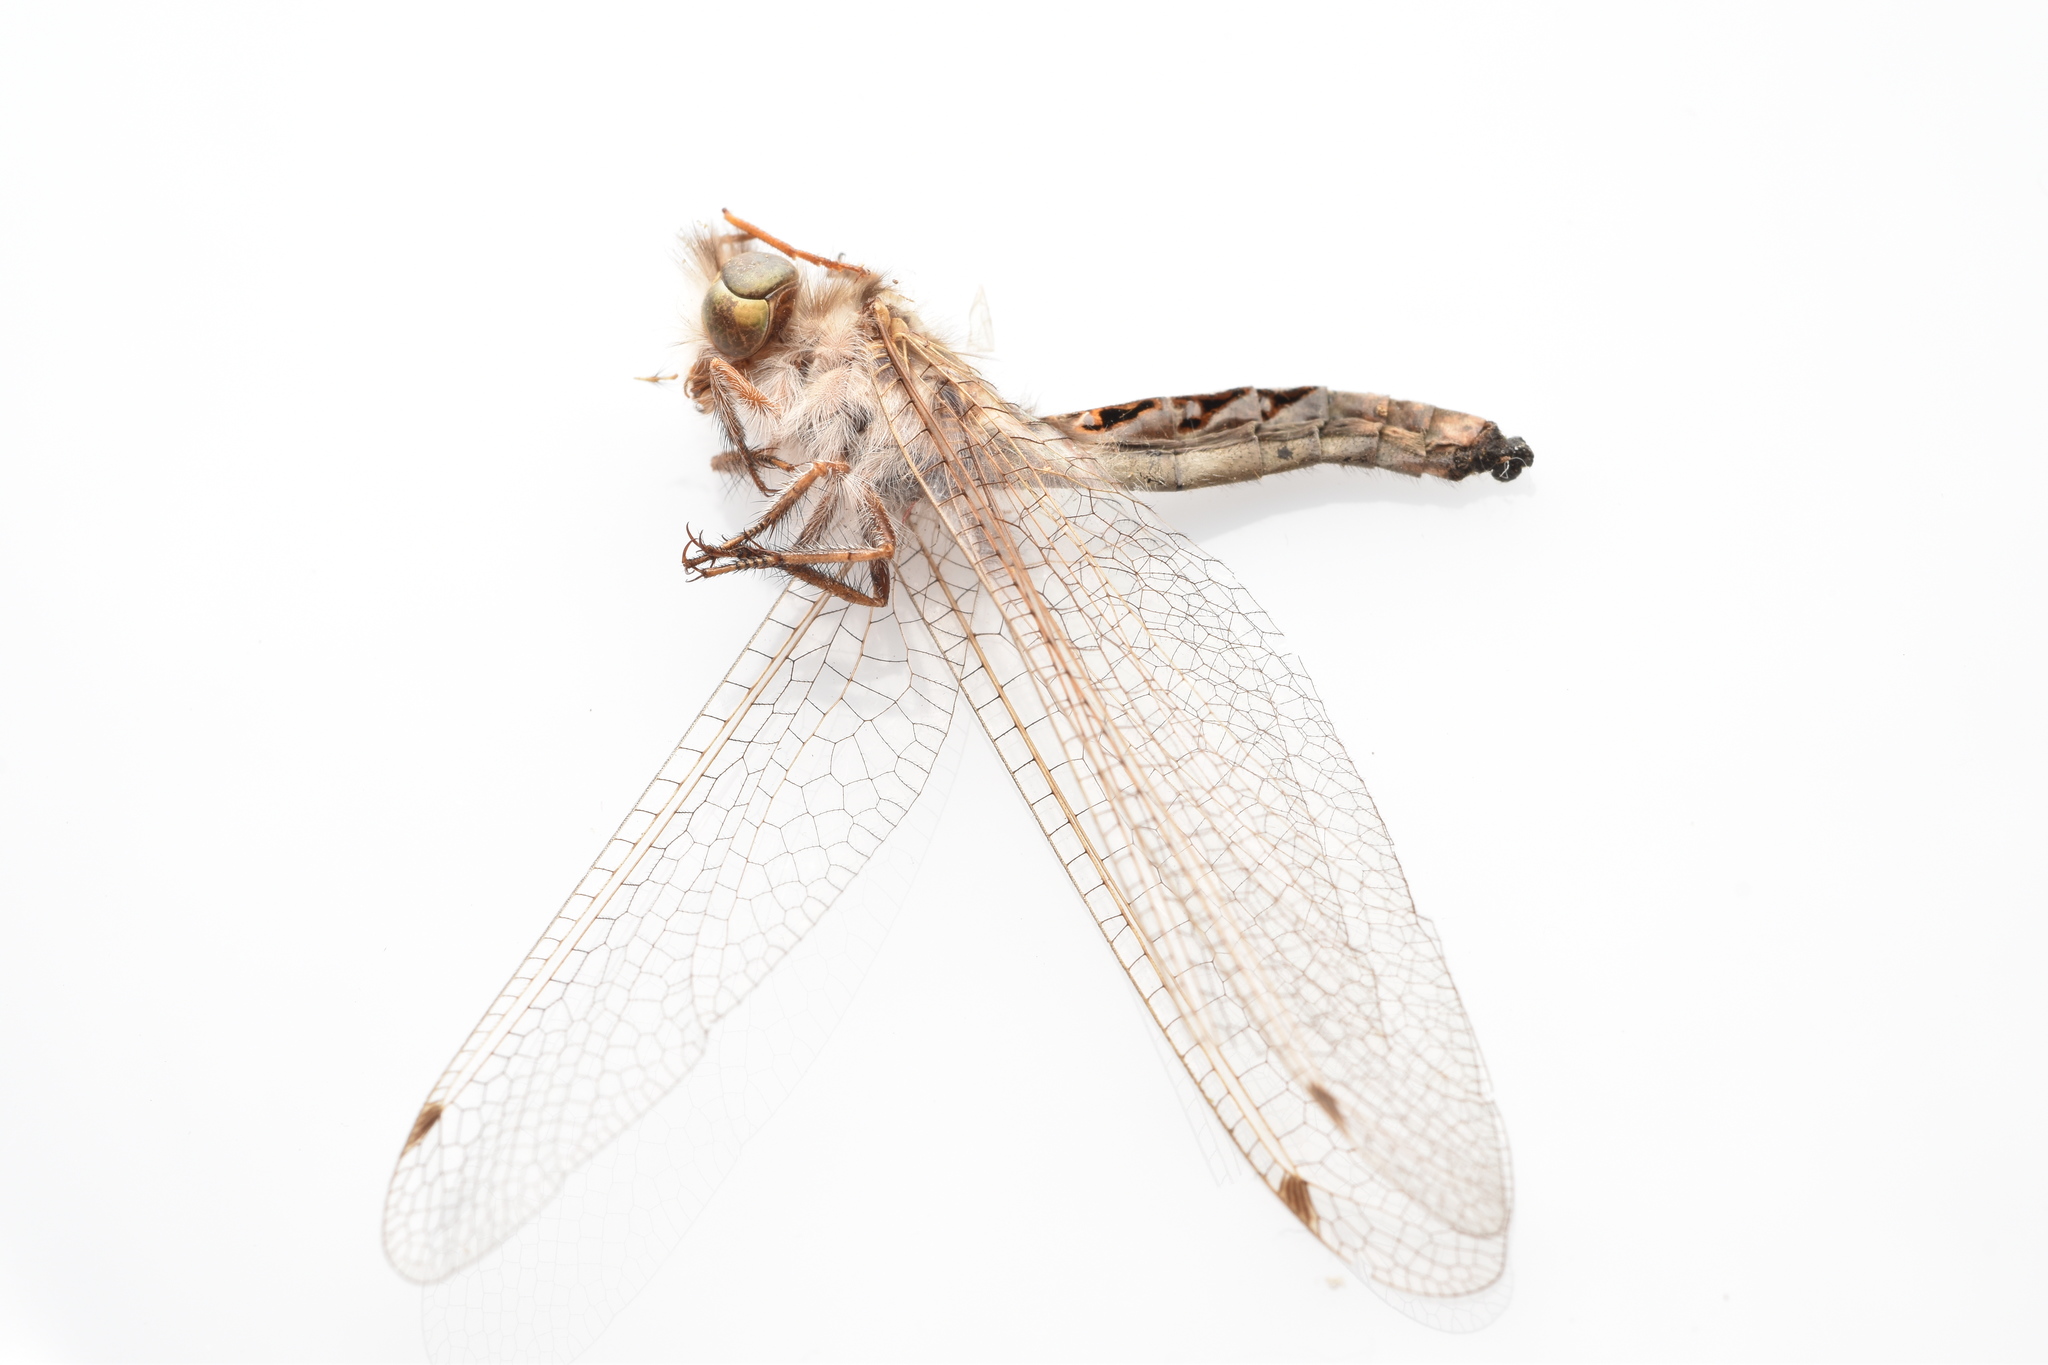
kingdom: Animalia
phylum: Arthropoda
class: Insecta
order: Neuroptera
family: Ascalaphidae
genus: Ululodes
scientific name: Ululodes macleayanus
